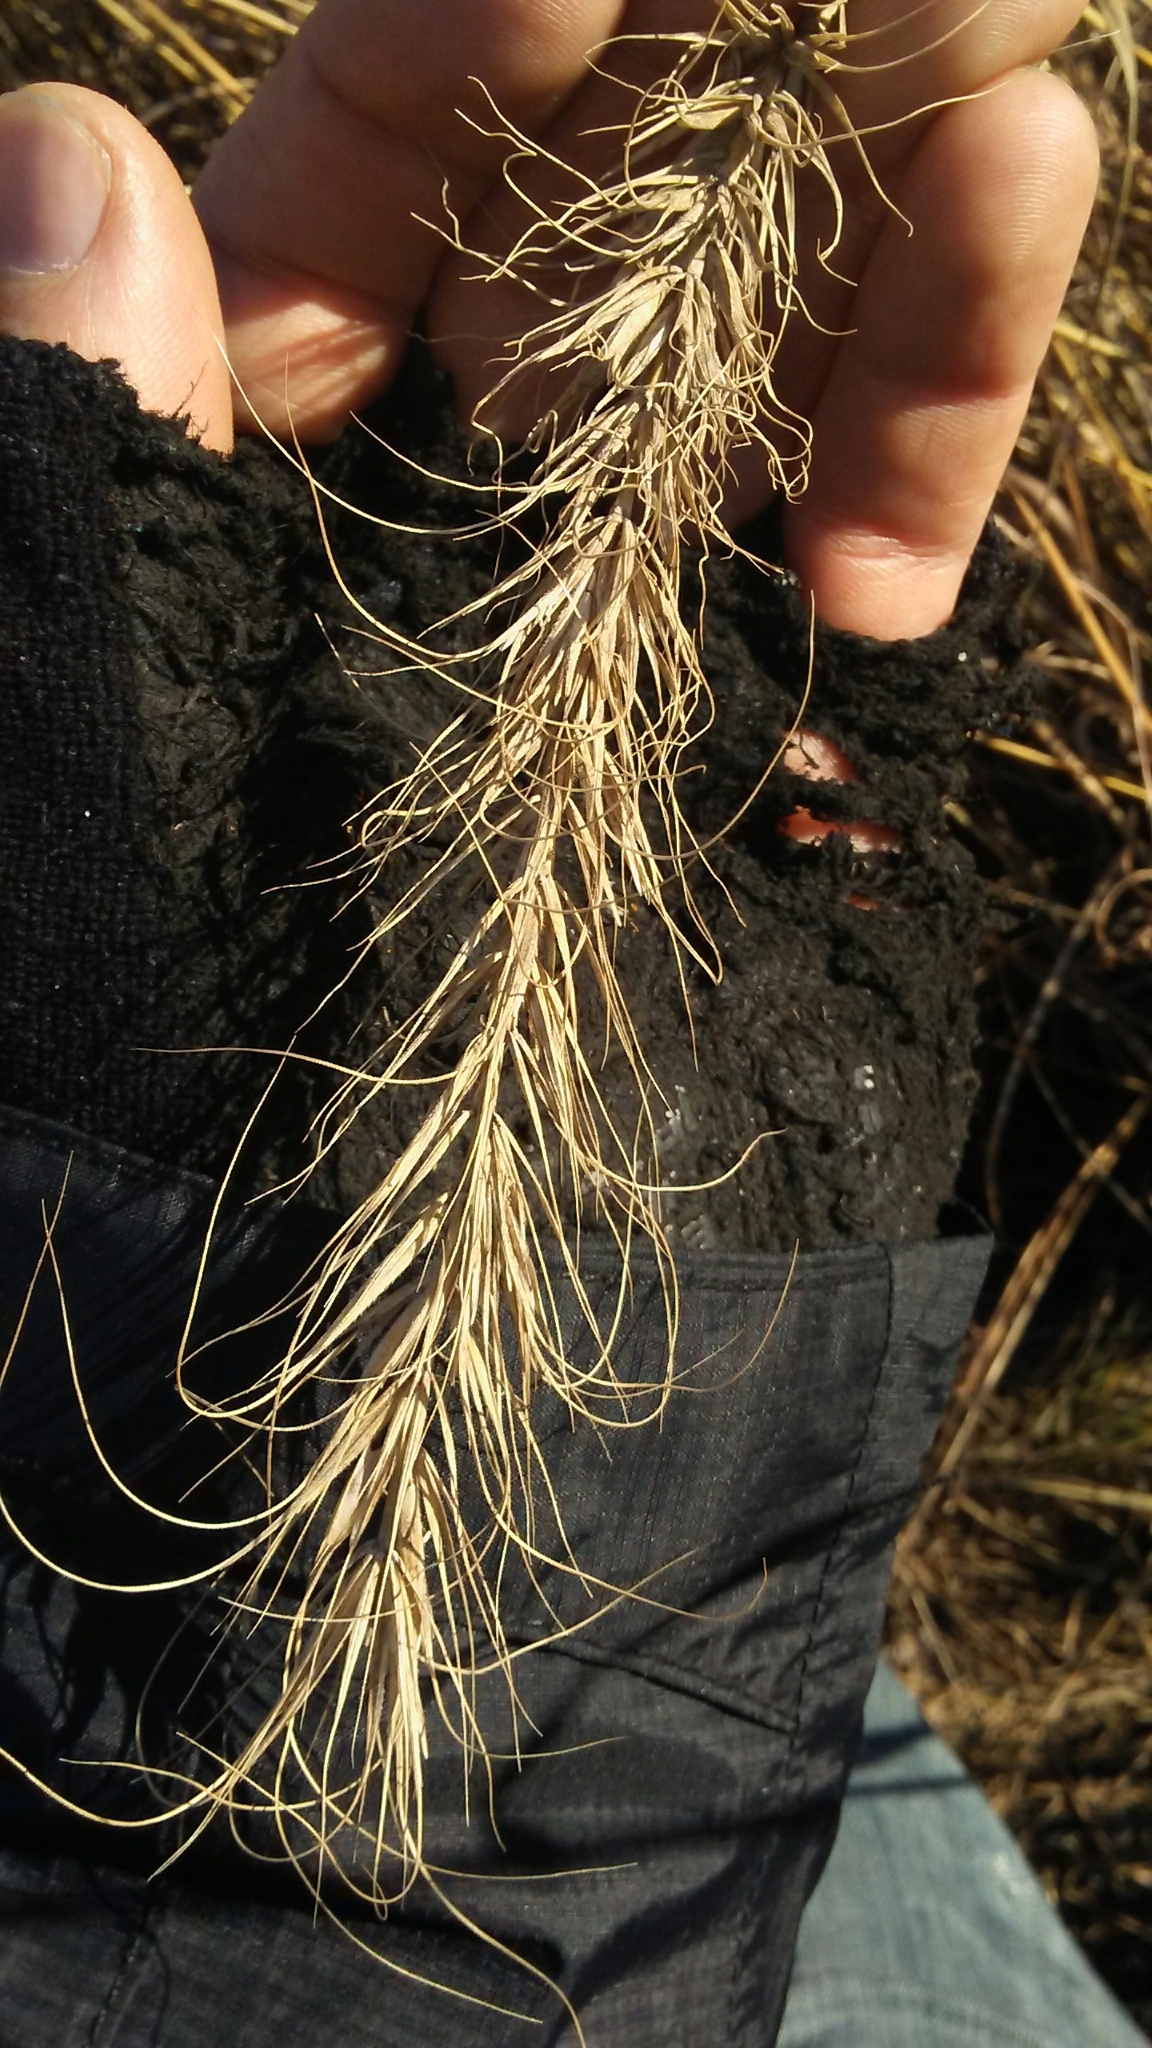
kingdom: Plantae
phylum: Tracheophyta
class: Liliopsida
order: Poales
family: Poaceae
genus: Elymus
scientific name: Elymus canadensis
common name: Canada wild rye
